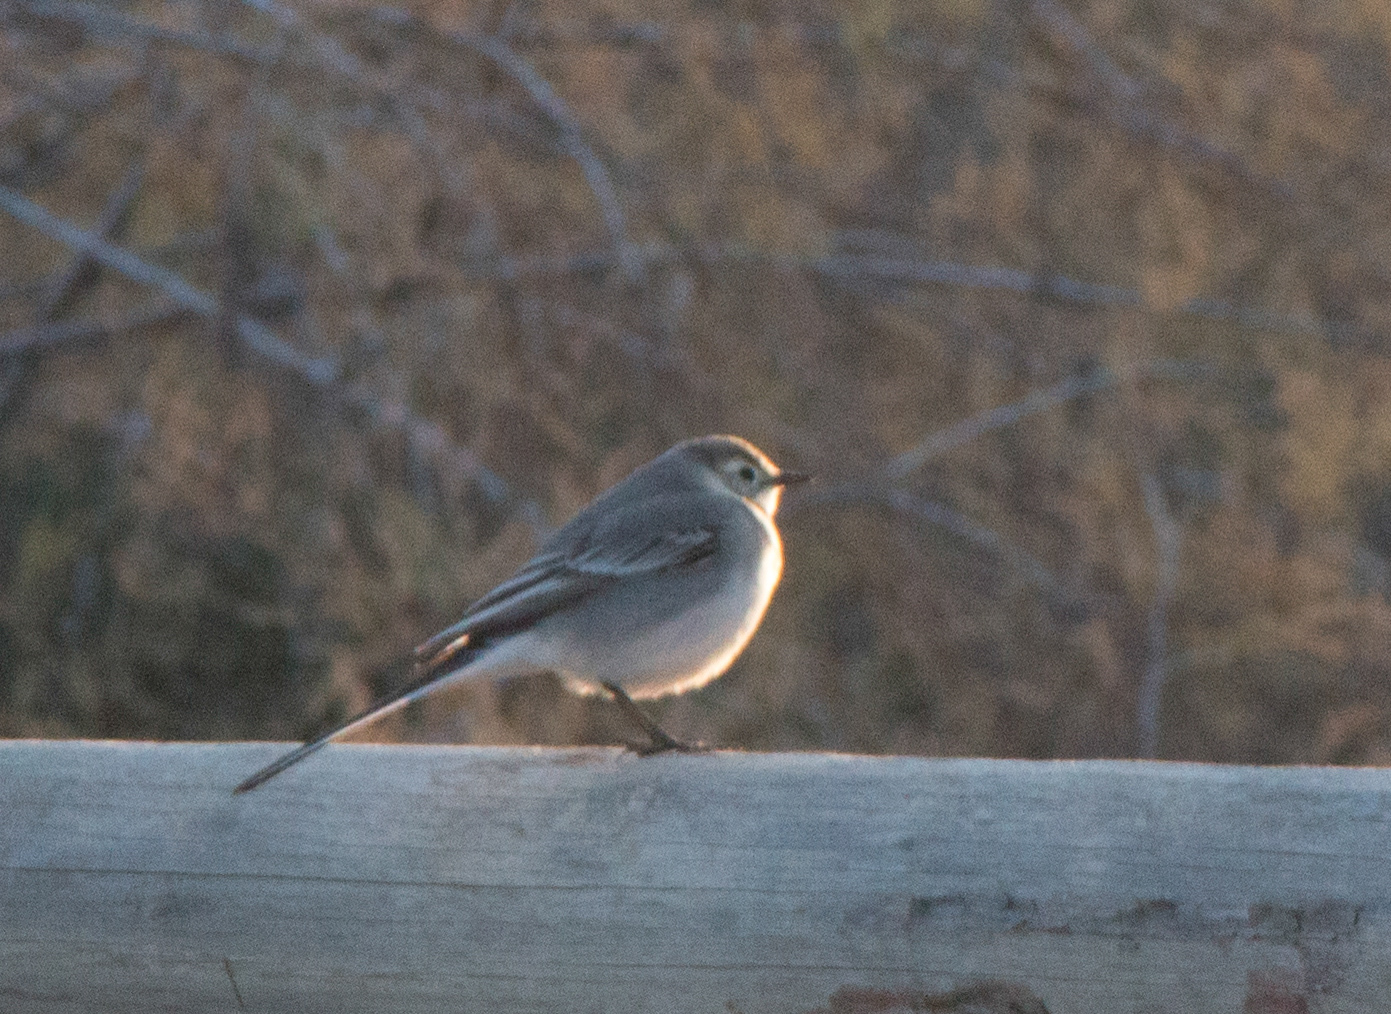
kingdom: Animalia
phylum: Chordata
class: Aves
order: Passeriformes
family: Motacillidae
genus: Motacilla
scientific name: Motacilla alba
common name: White wagtail
